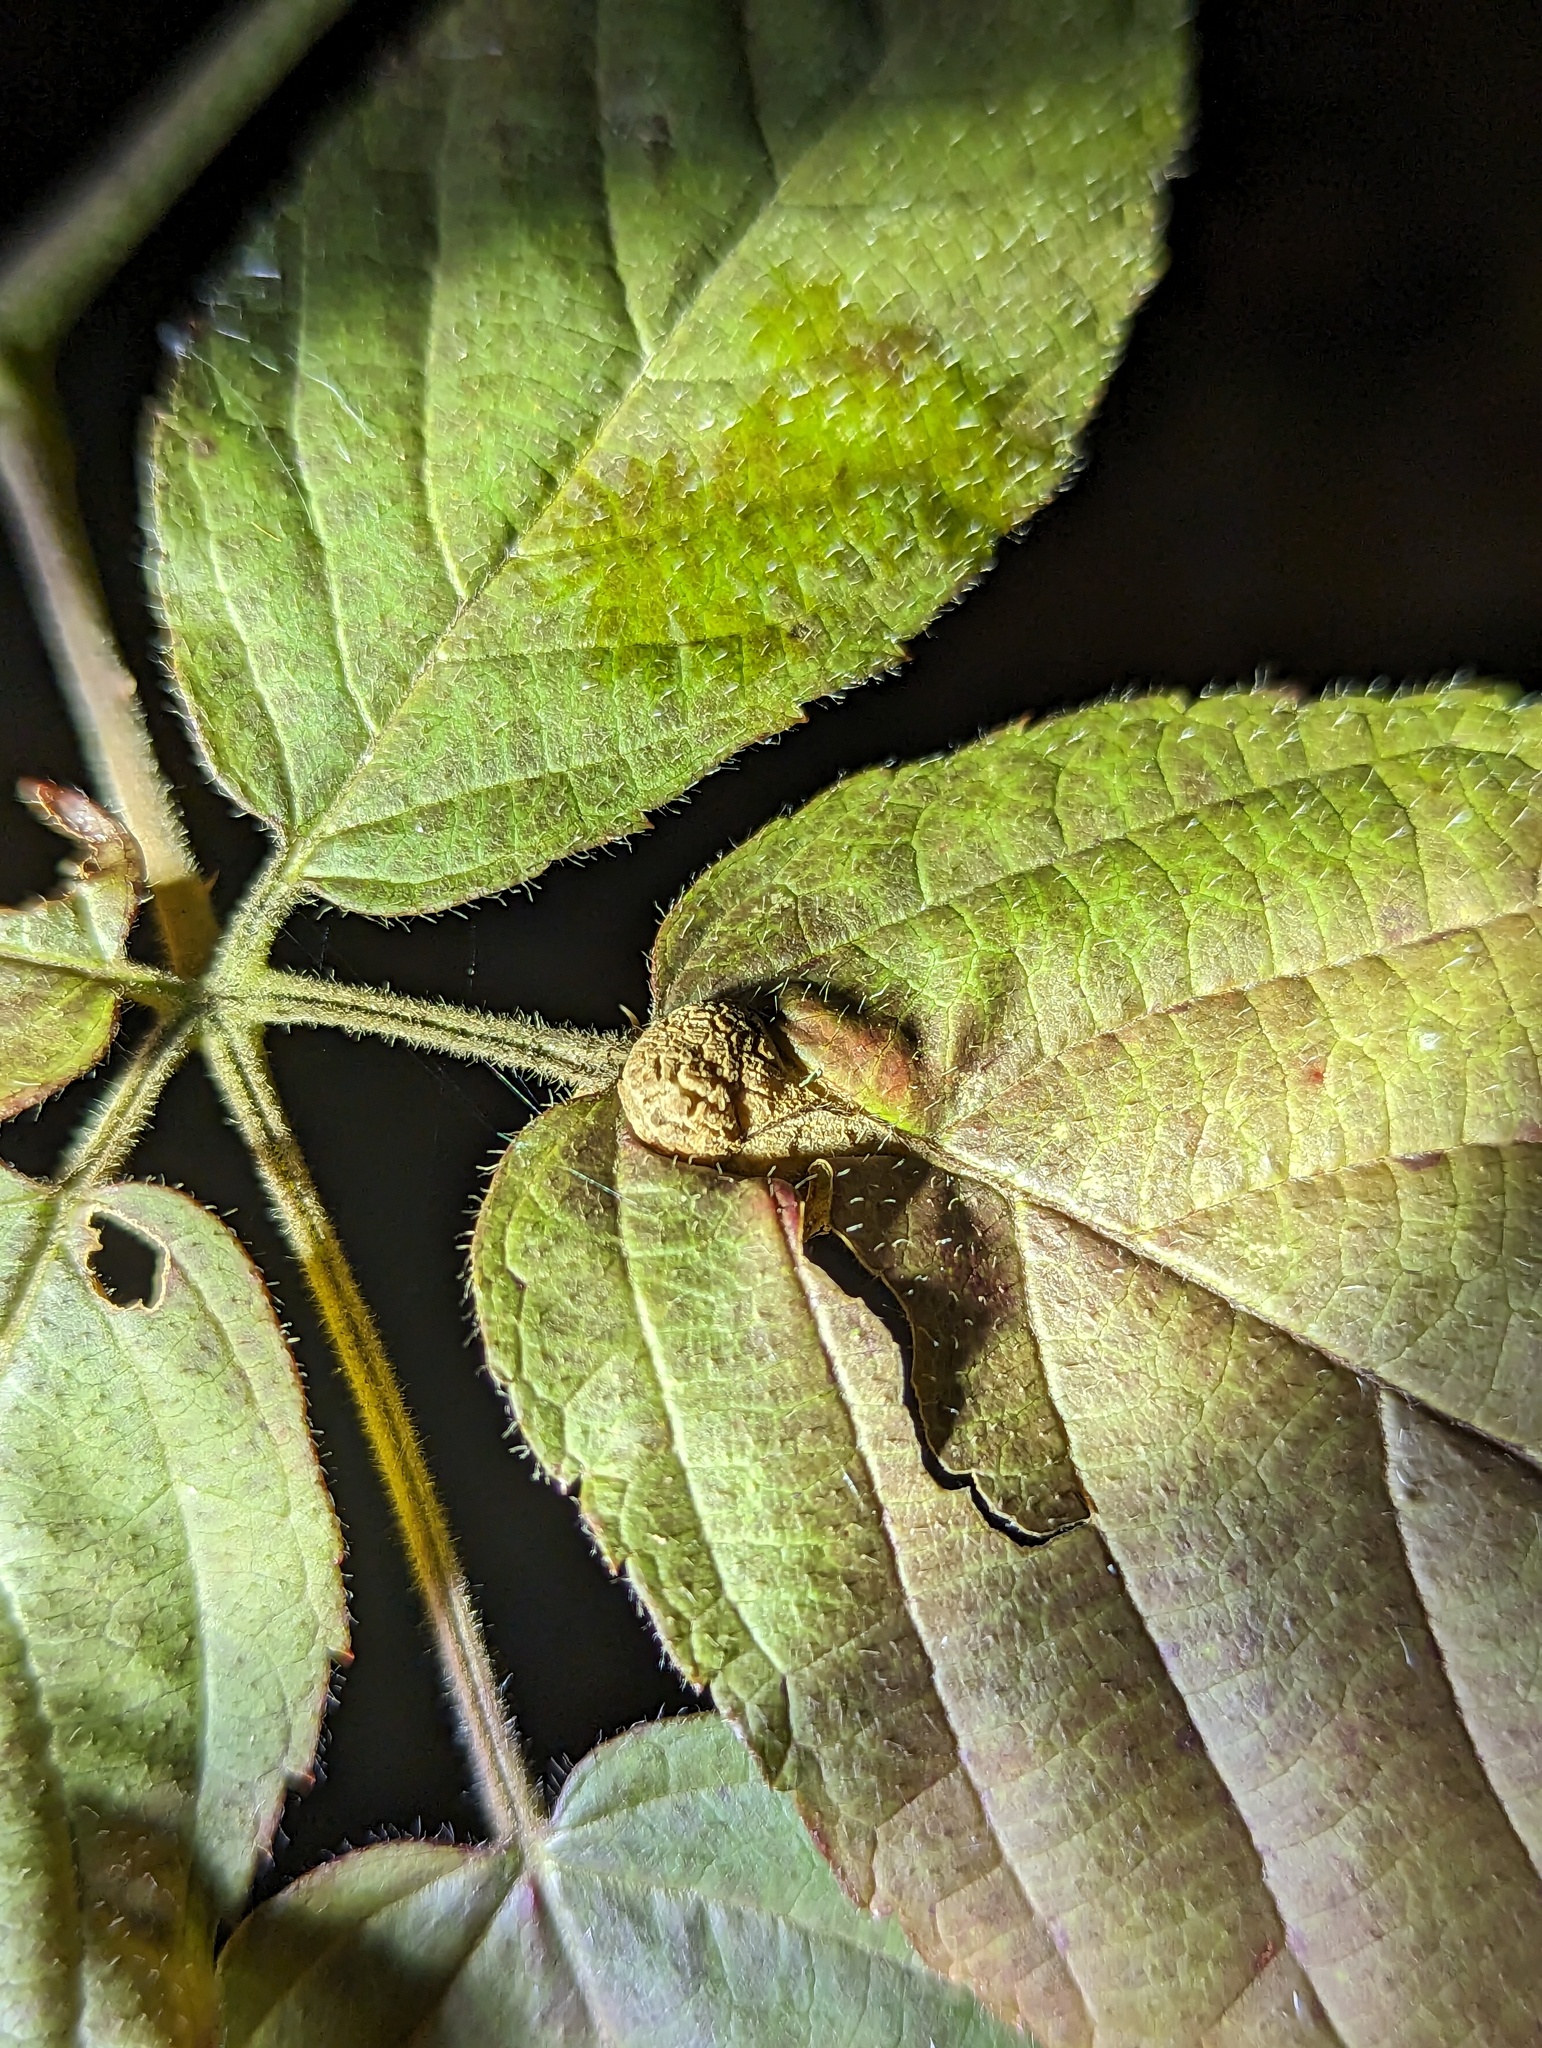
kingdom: Animalia
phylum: Arthropoda
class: Insecta
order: Diptera
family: Cecidomyiidae
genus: Neolasioptera
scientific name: Neolasioptera farinosa
